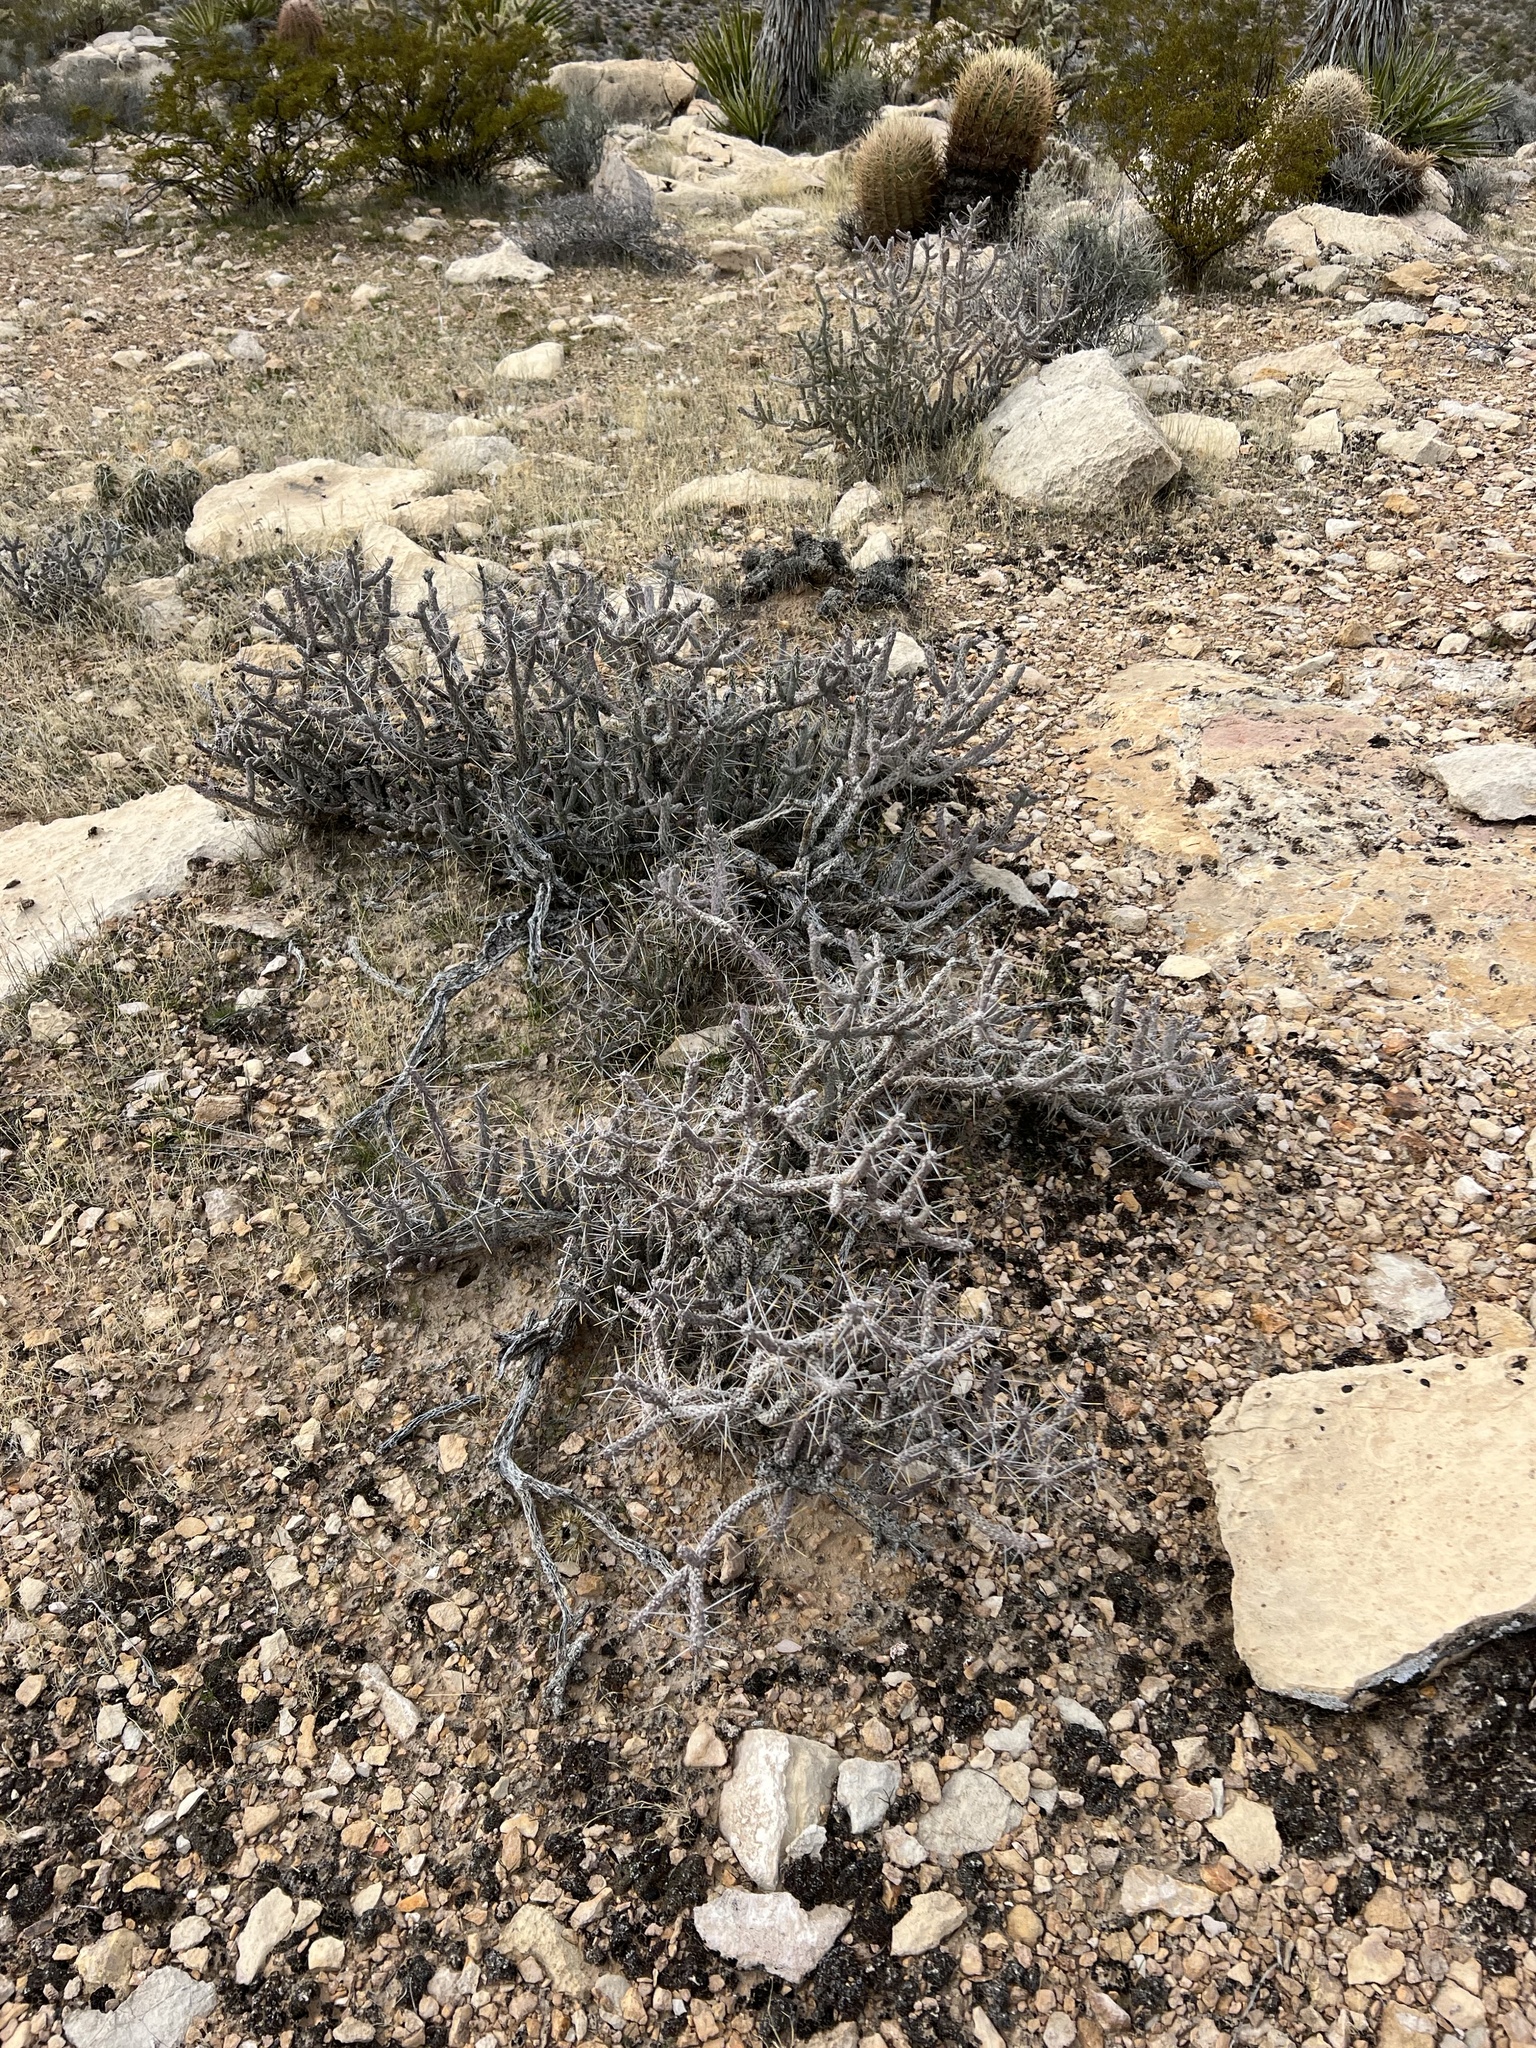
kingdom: Plantae
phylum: Tracheophyta
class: Magnoliopsida
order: Caryophyllales
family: Cactaceae
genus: Cylindropuntia
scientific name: Cylindropuntia ramosissima
